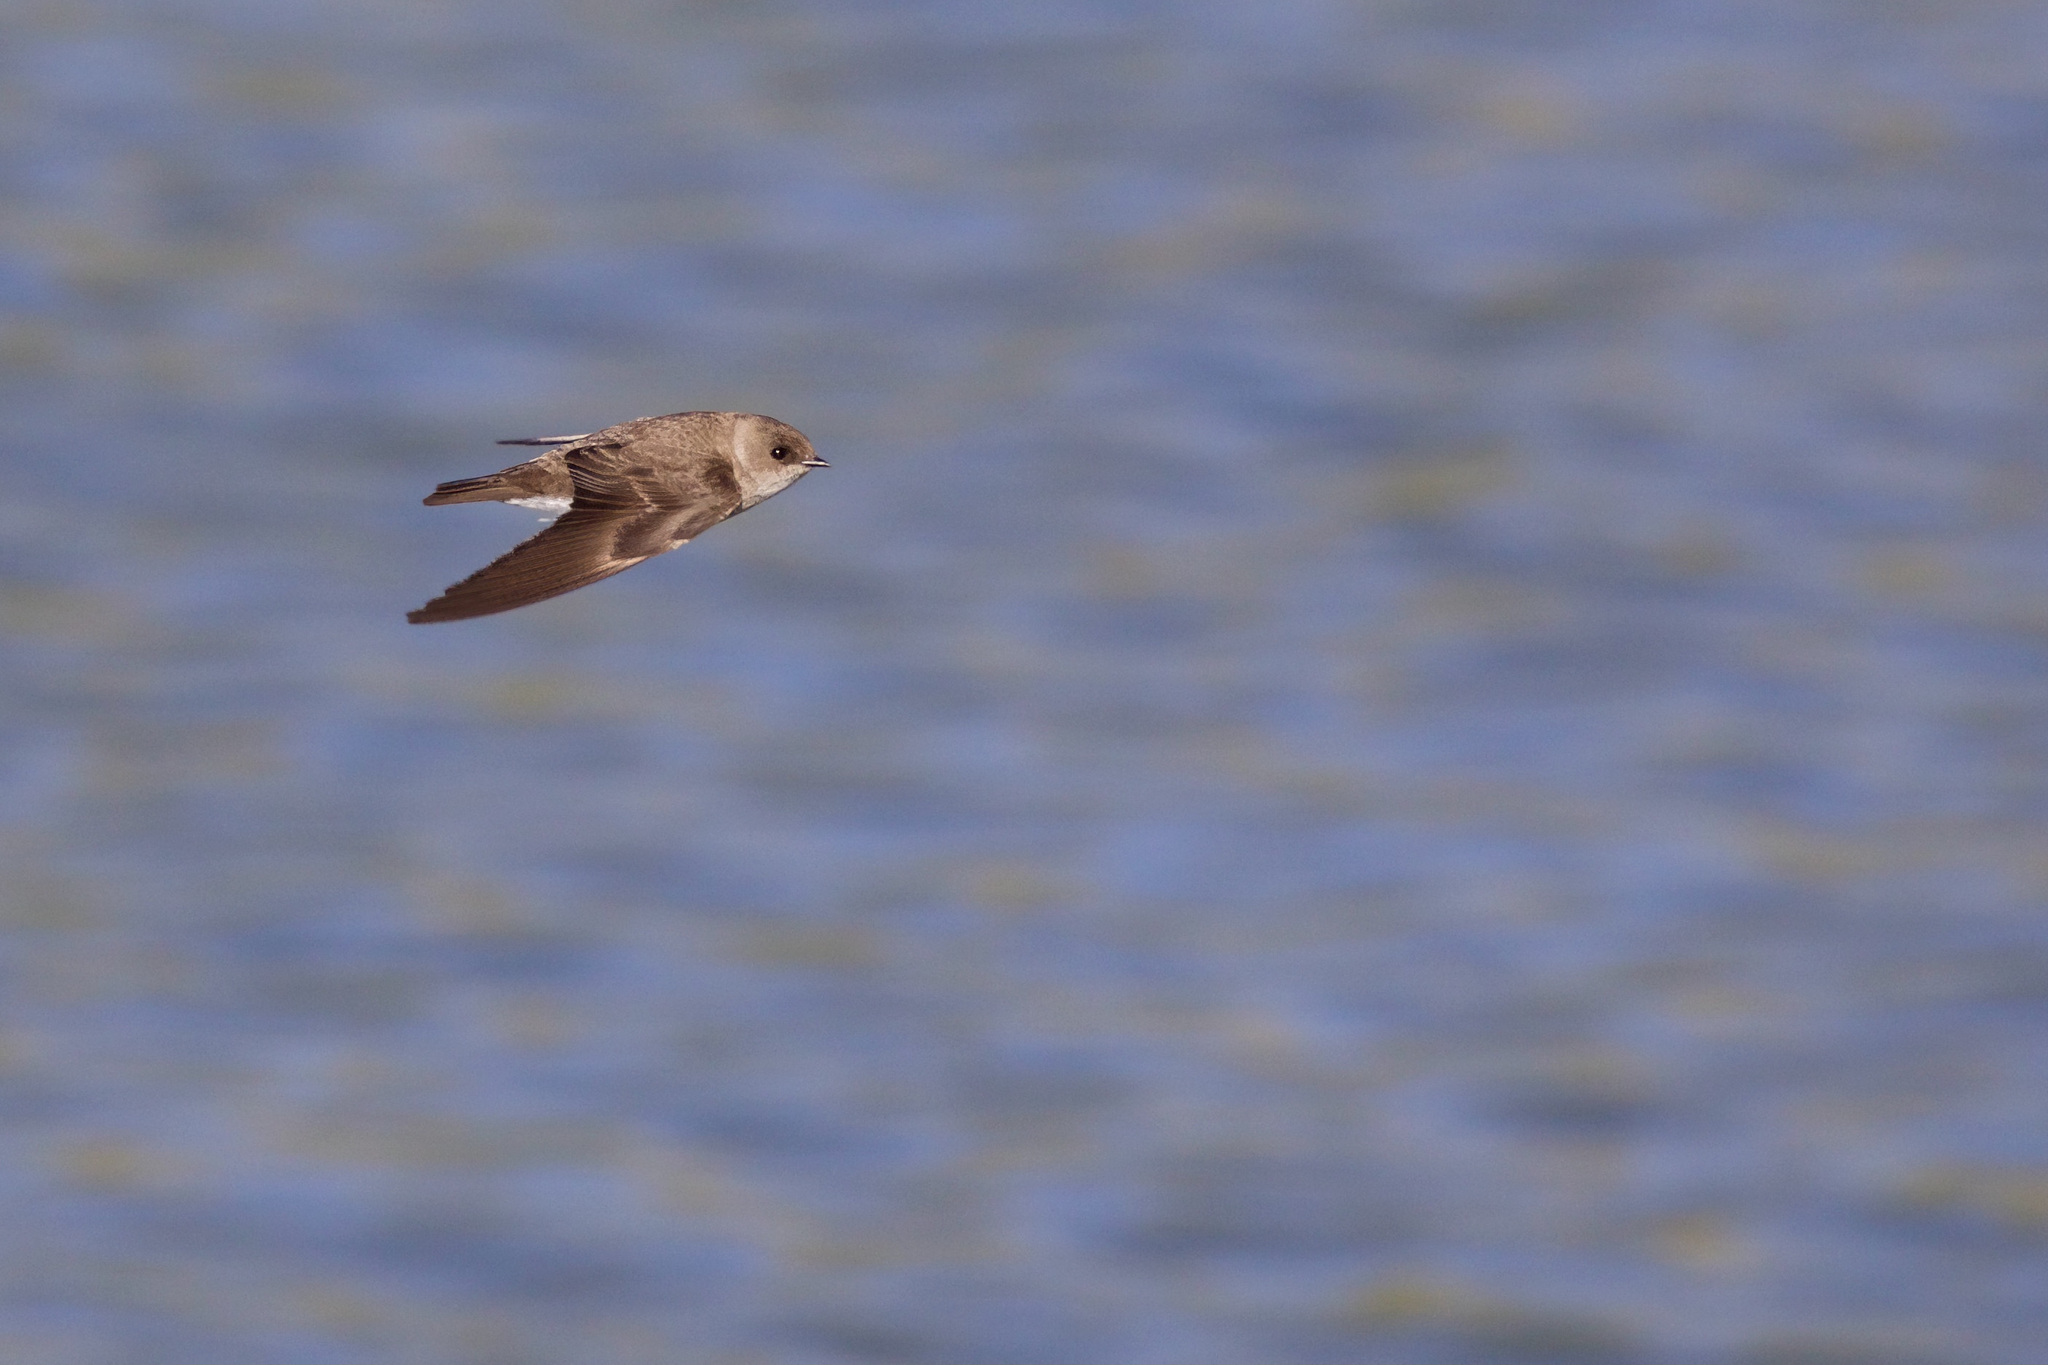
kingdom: Animalia
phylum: Chordata
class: Aves
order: Passeriformes
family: Hirundinidae
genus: Stelgidopteryx
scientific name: Stelgidopteryx serripennis
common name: Northern rough-winged swallow
